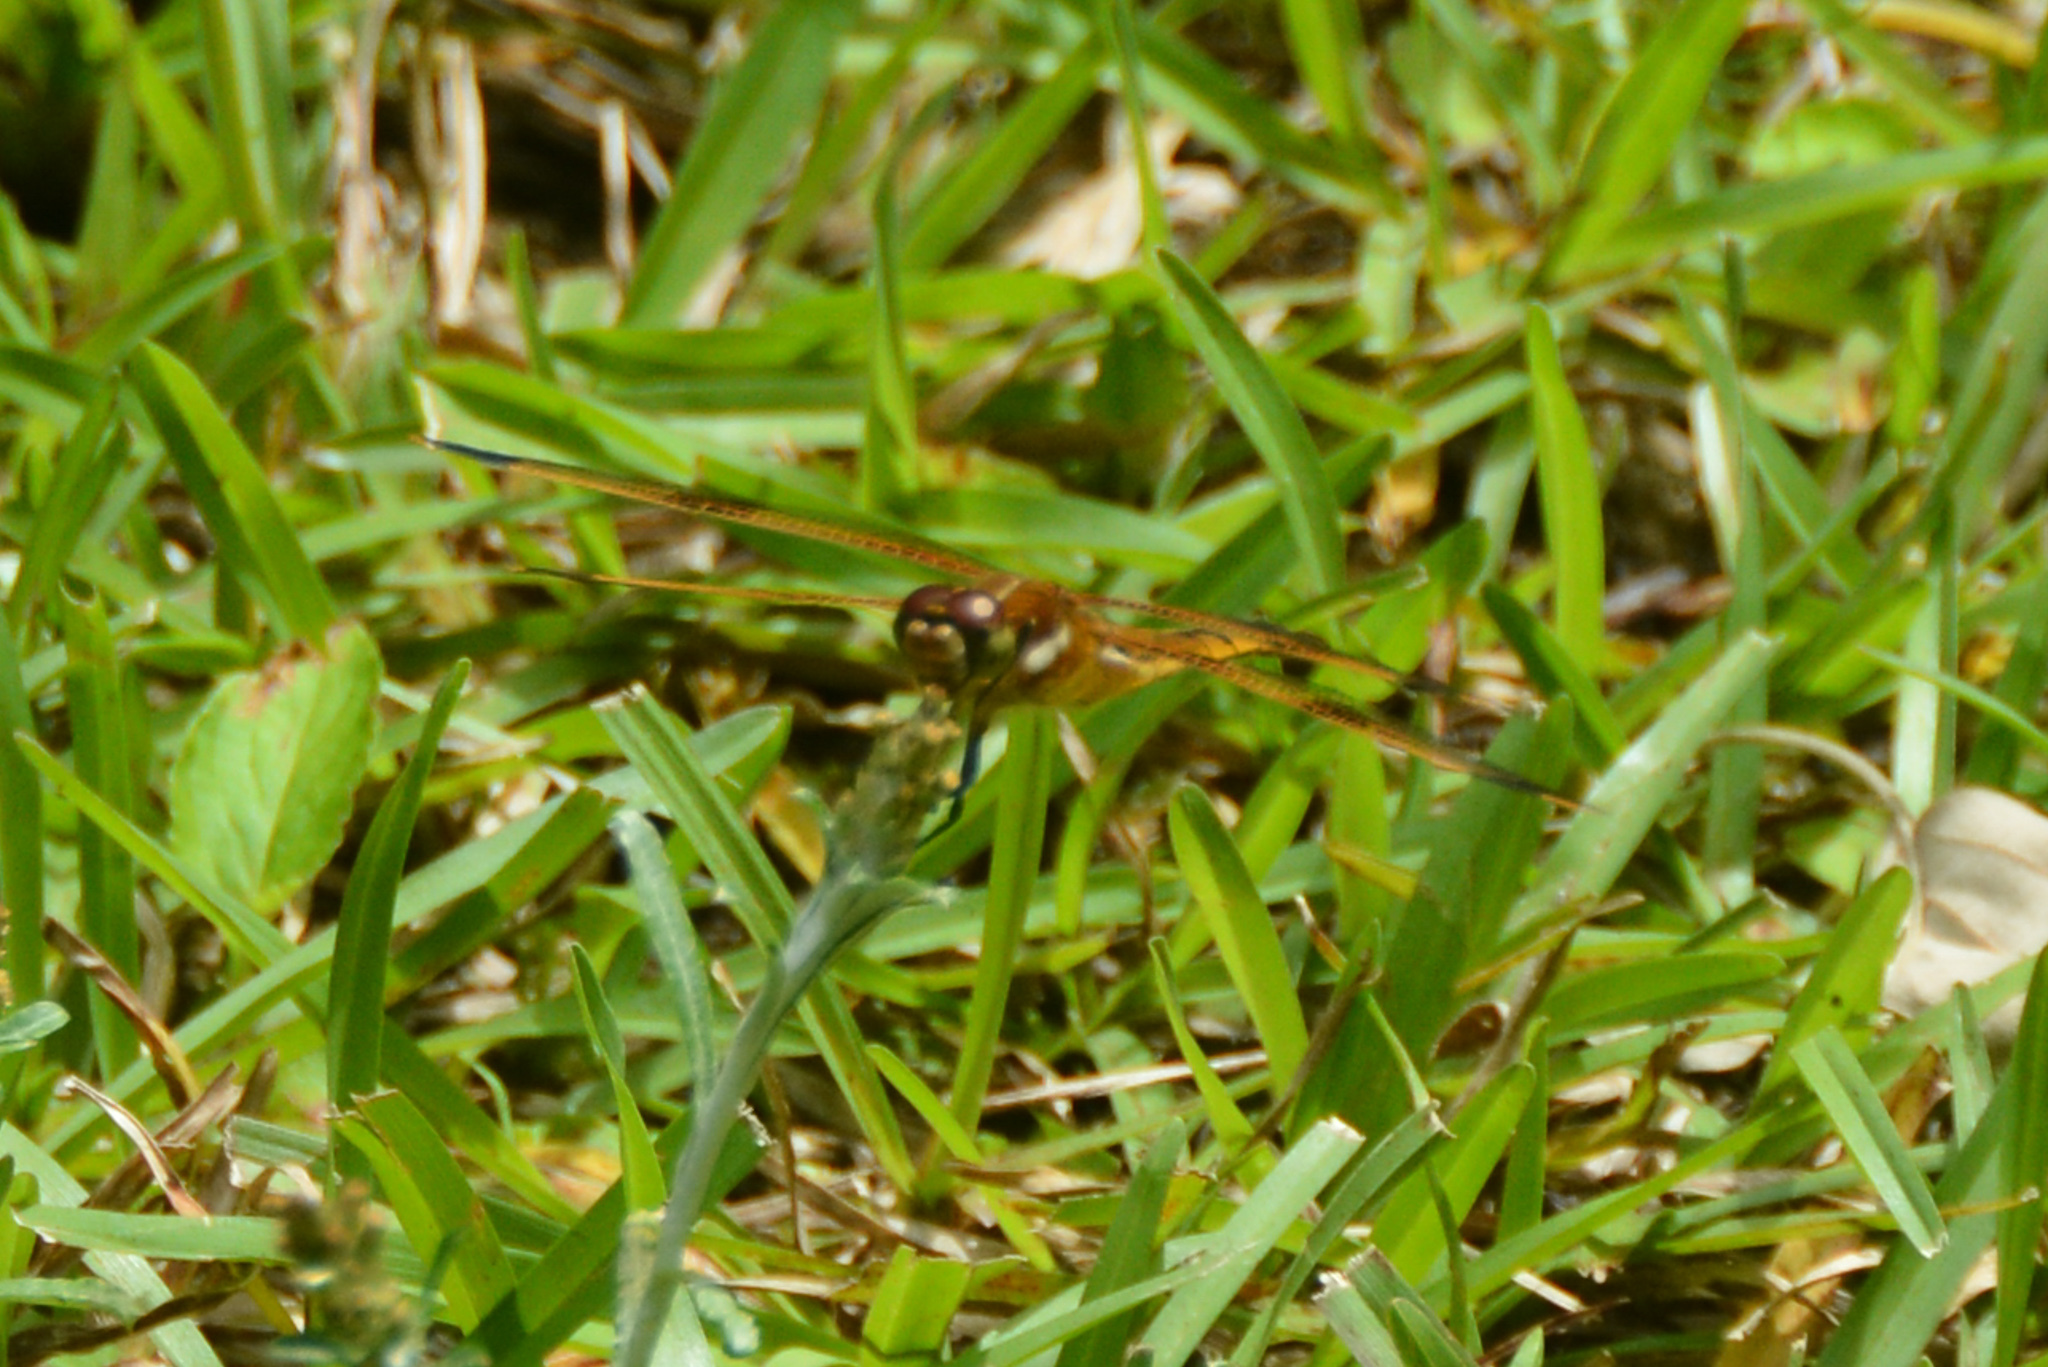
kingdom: Animalia
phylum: Arthropoda
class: Insecta
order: Odonata
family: Libellulidae
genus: Libellula
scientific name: Libellula semifasciata
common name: Painted skimmer
